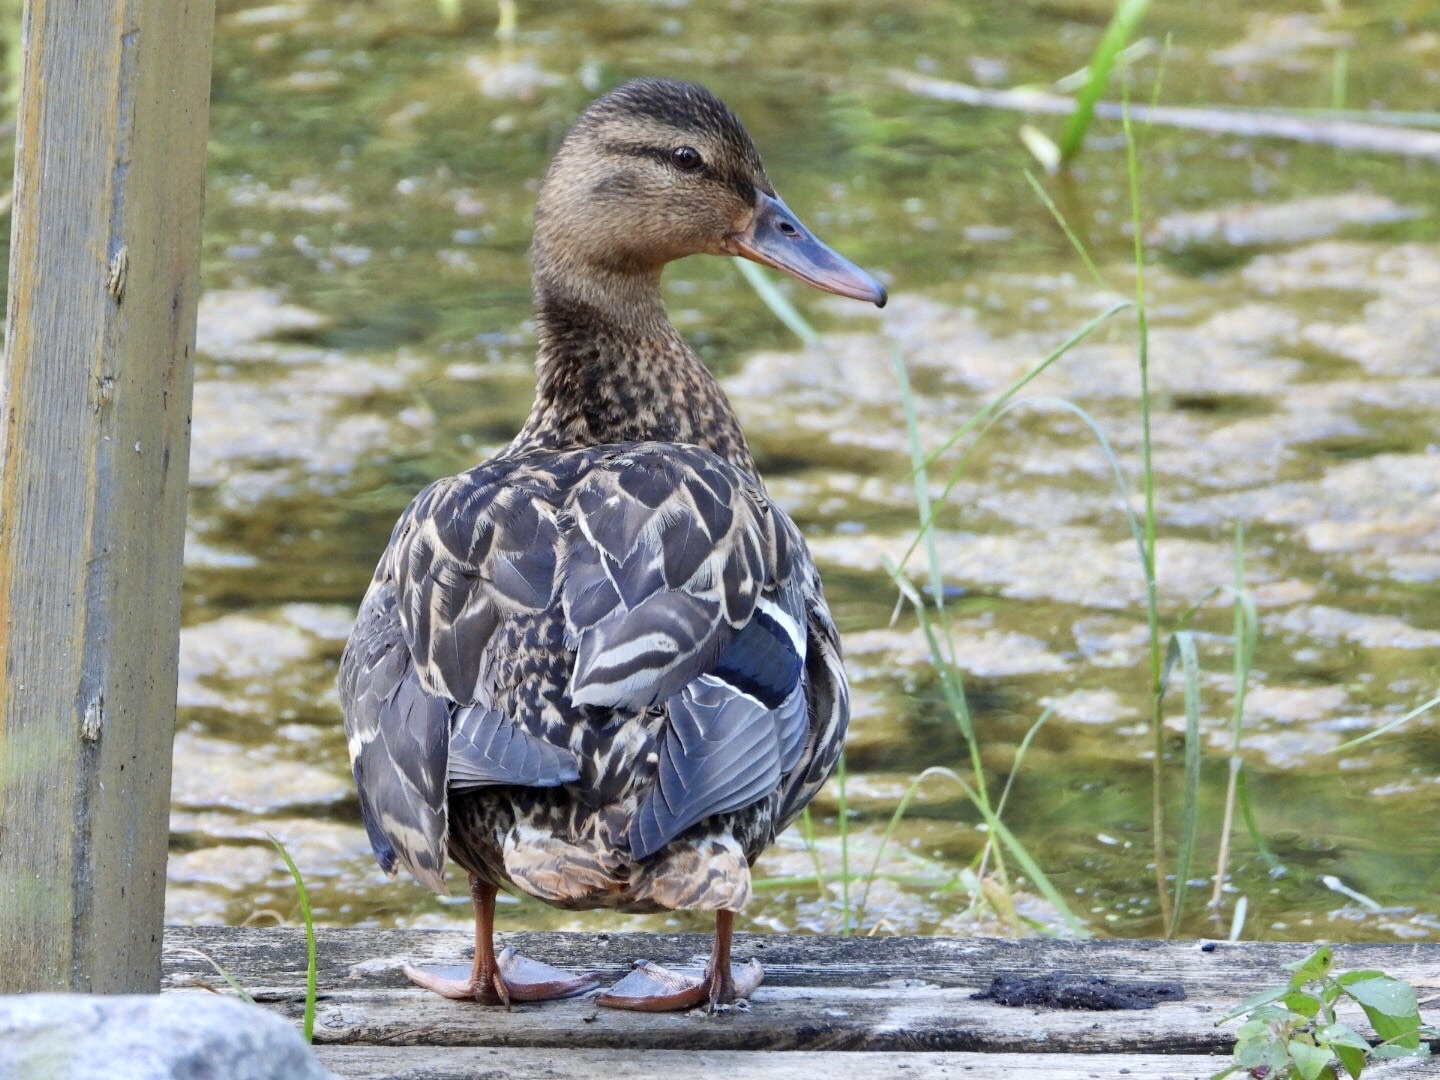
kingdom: Animalia
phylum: Chordata
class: Aves
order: Anseriformes
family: Anatidae
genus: Anas
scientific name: Anas platyrhynchos
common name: Mallard
